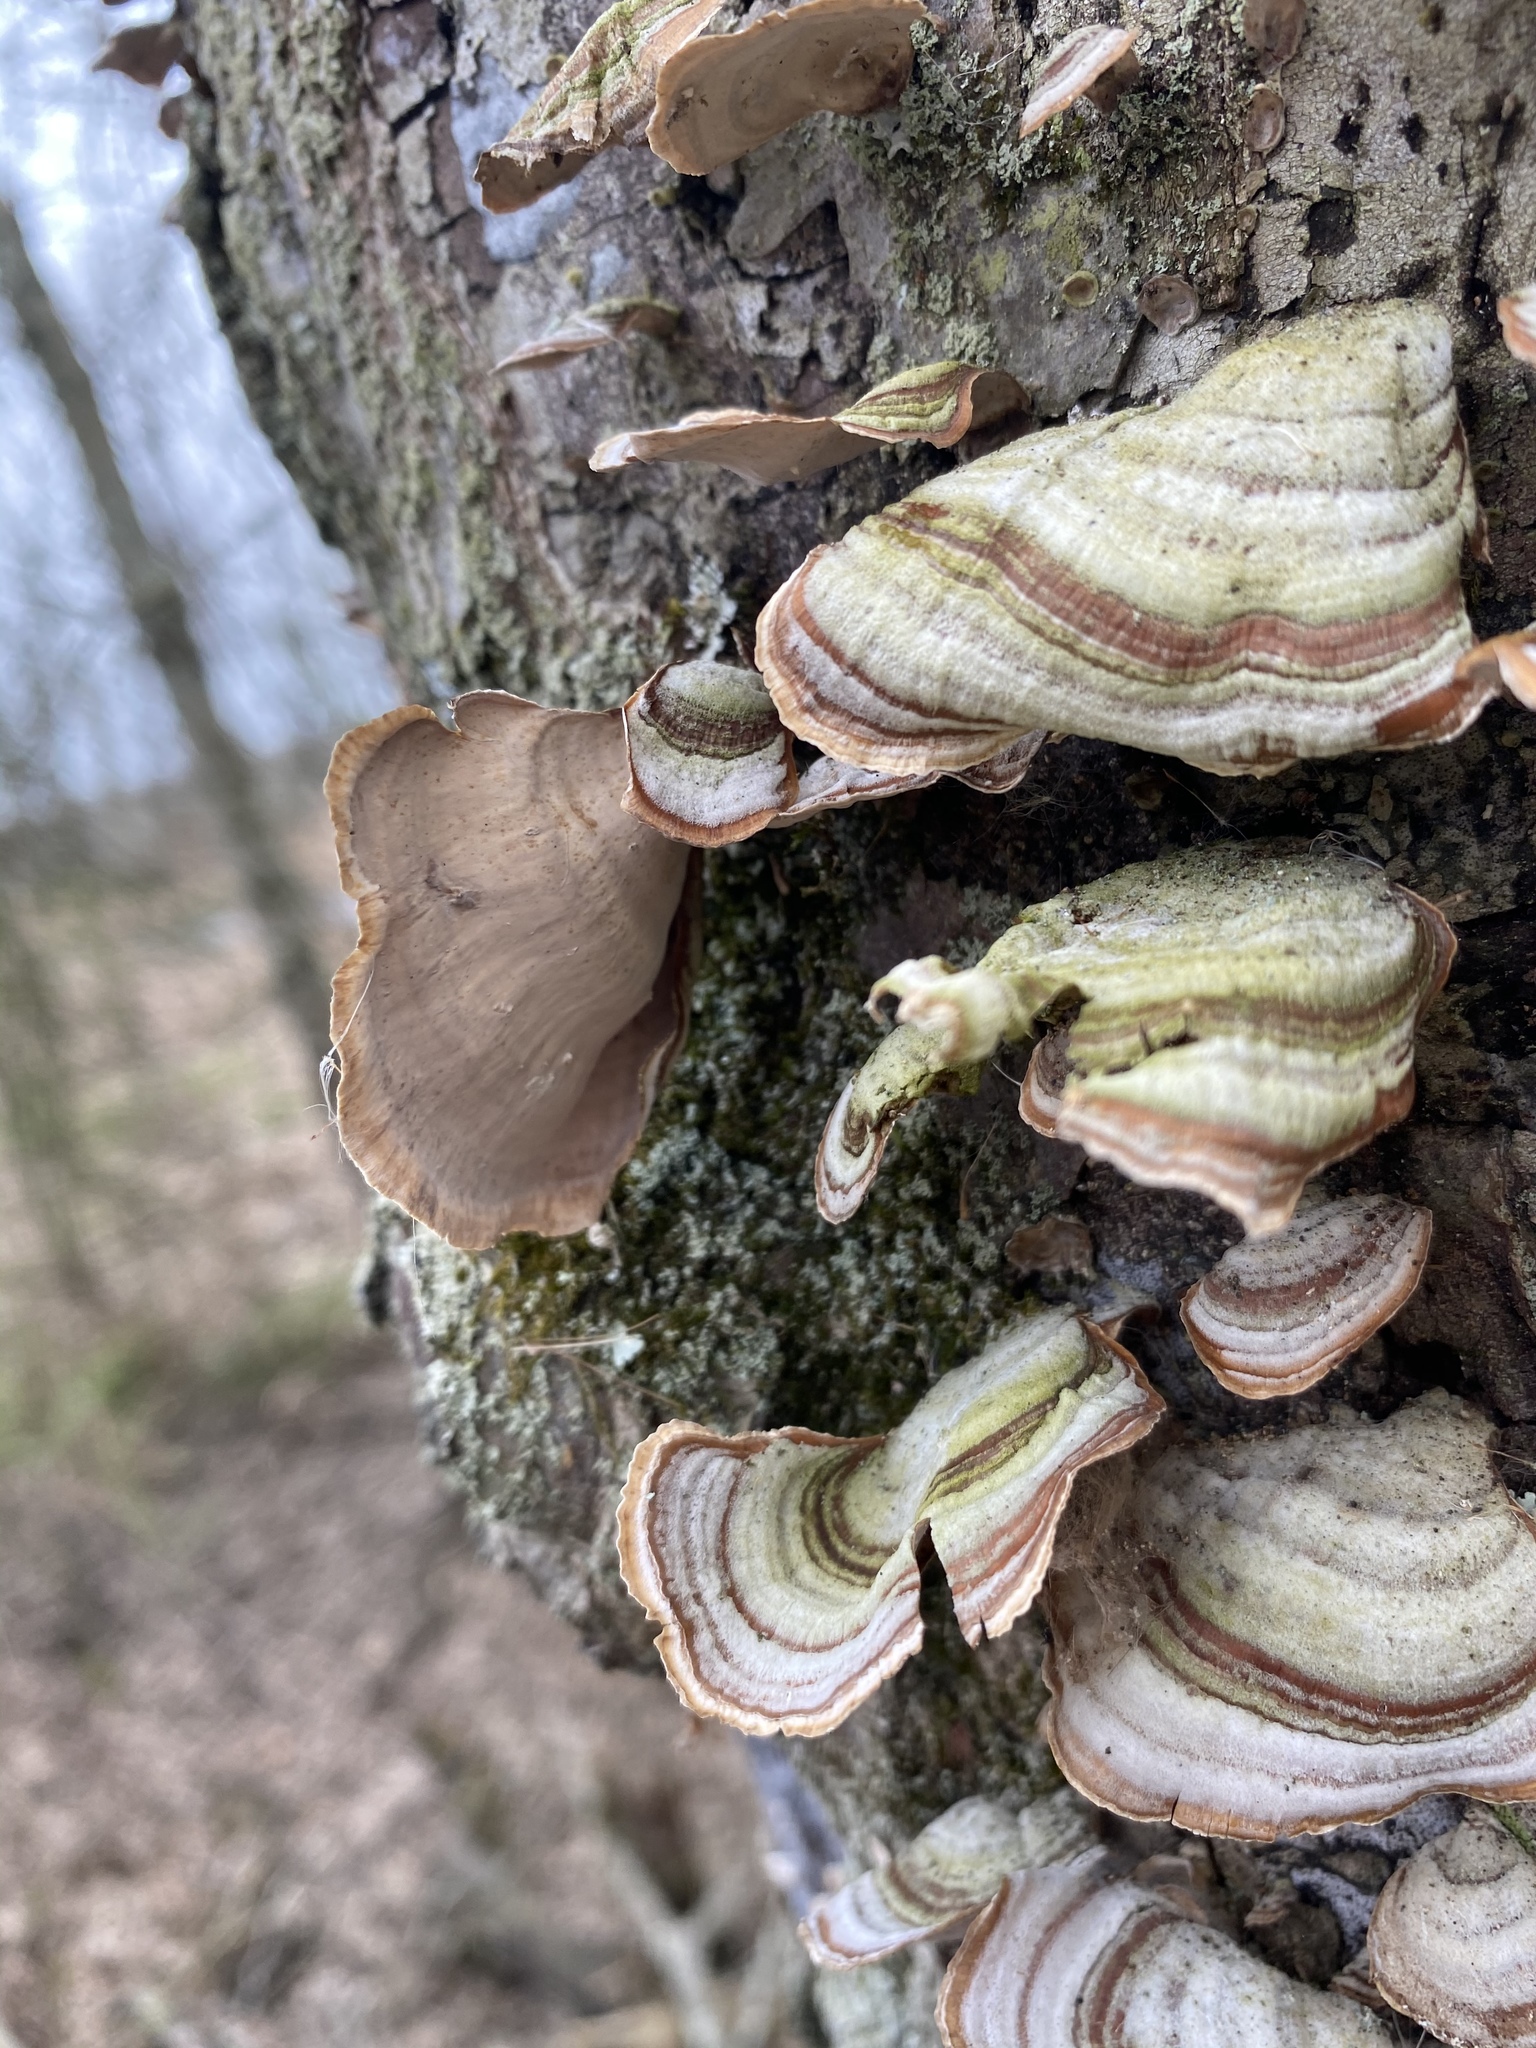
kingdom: Fungi
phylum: Basidiomycota
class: Agaricomycetes
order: Russulales
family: Stereaceae
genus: Stereum
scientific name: Stereum ostrea
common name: False turkeytail
